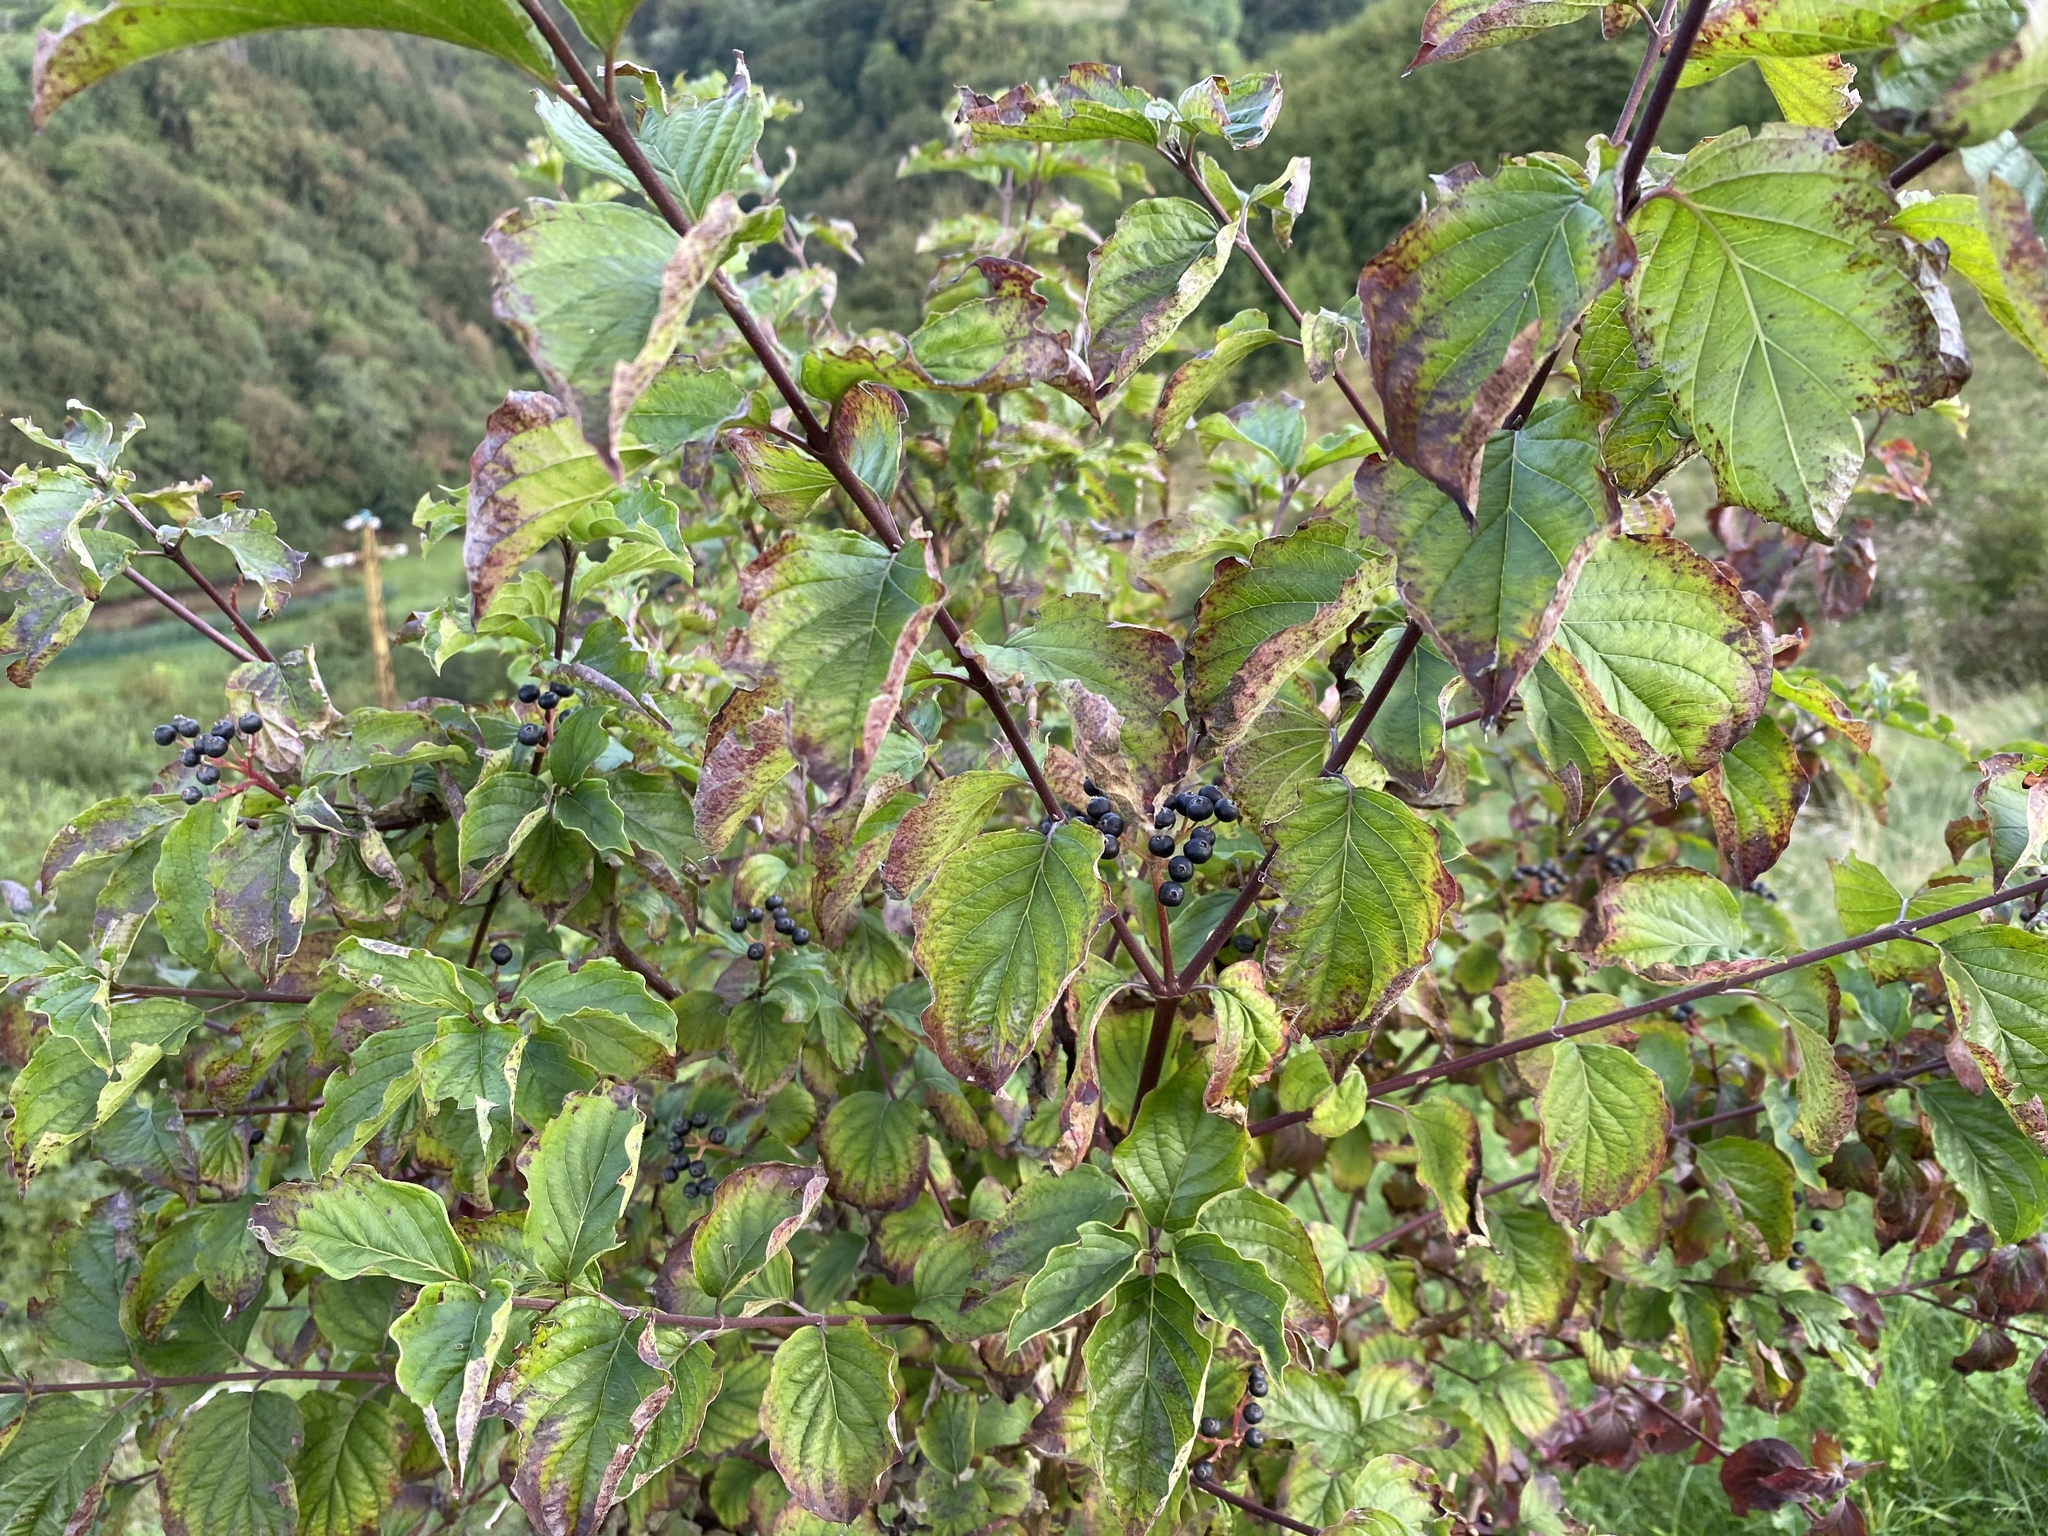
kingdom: Plantae
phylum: Tracheophyta
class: Magnoliopsida
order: Cornales
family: Cornaceae
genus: Cornus
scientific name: Cornus sanguinea
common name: Dogwood
